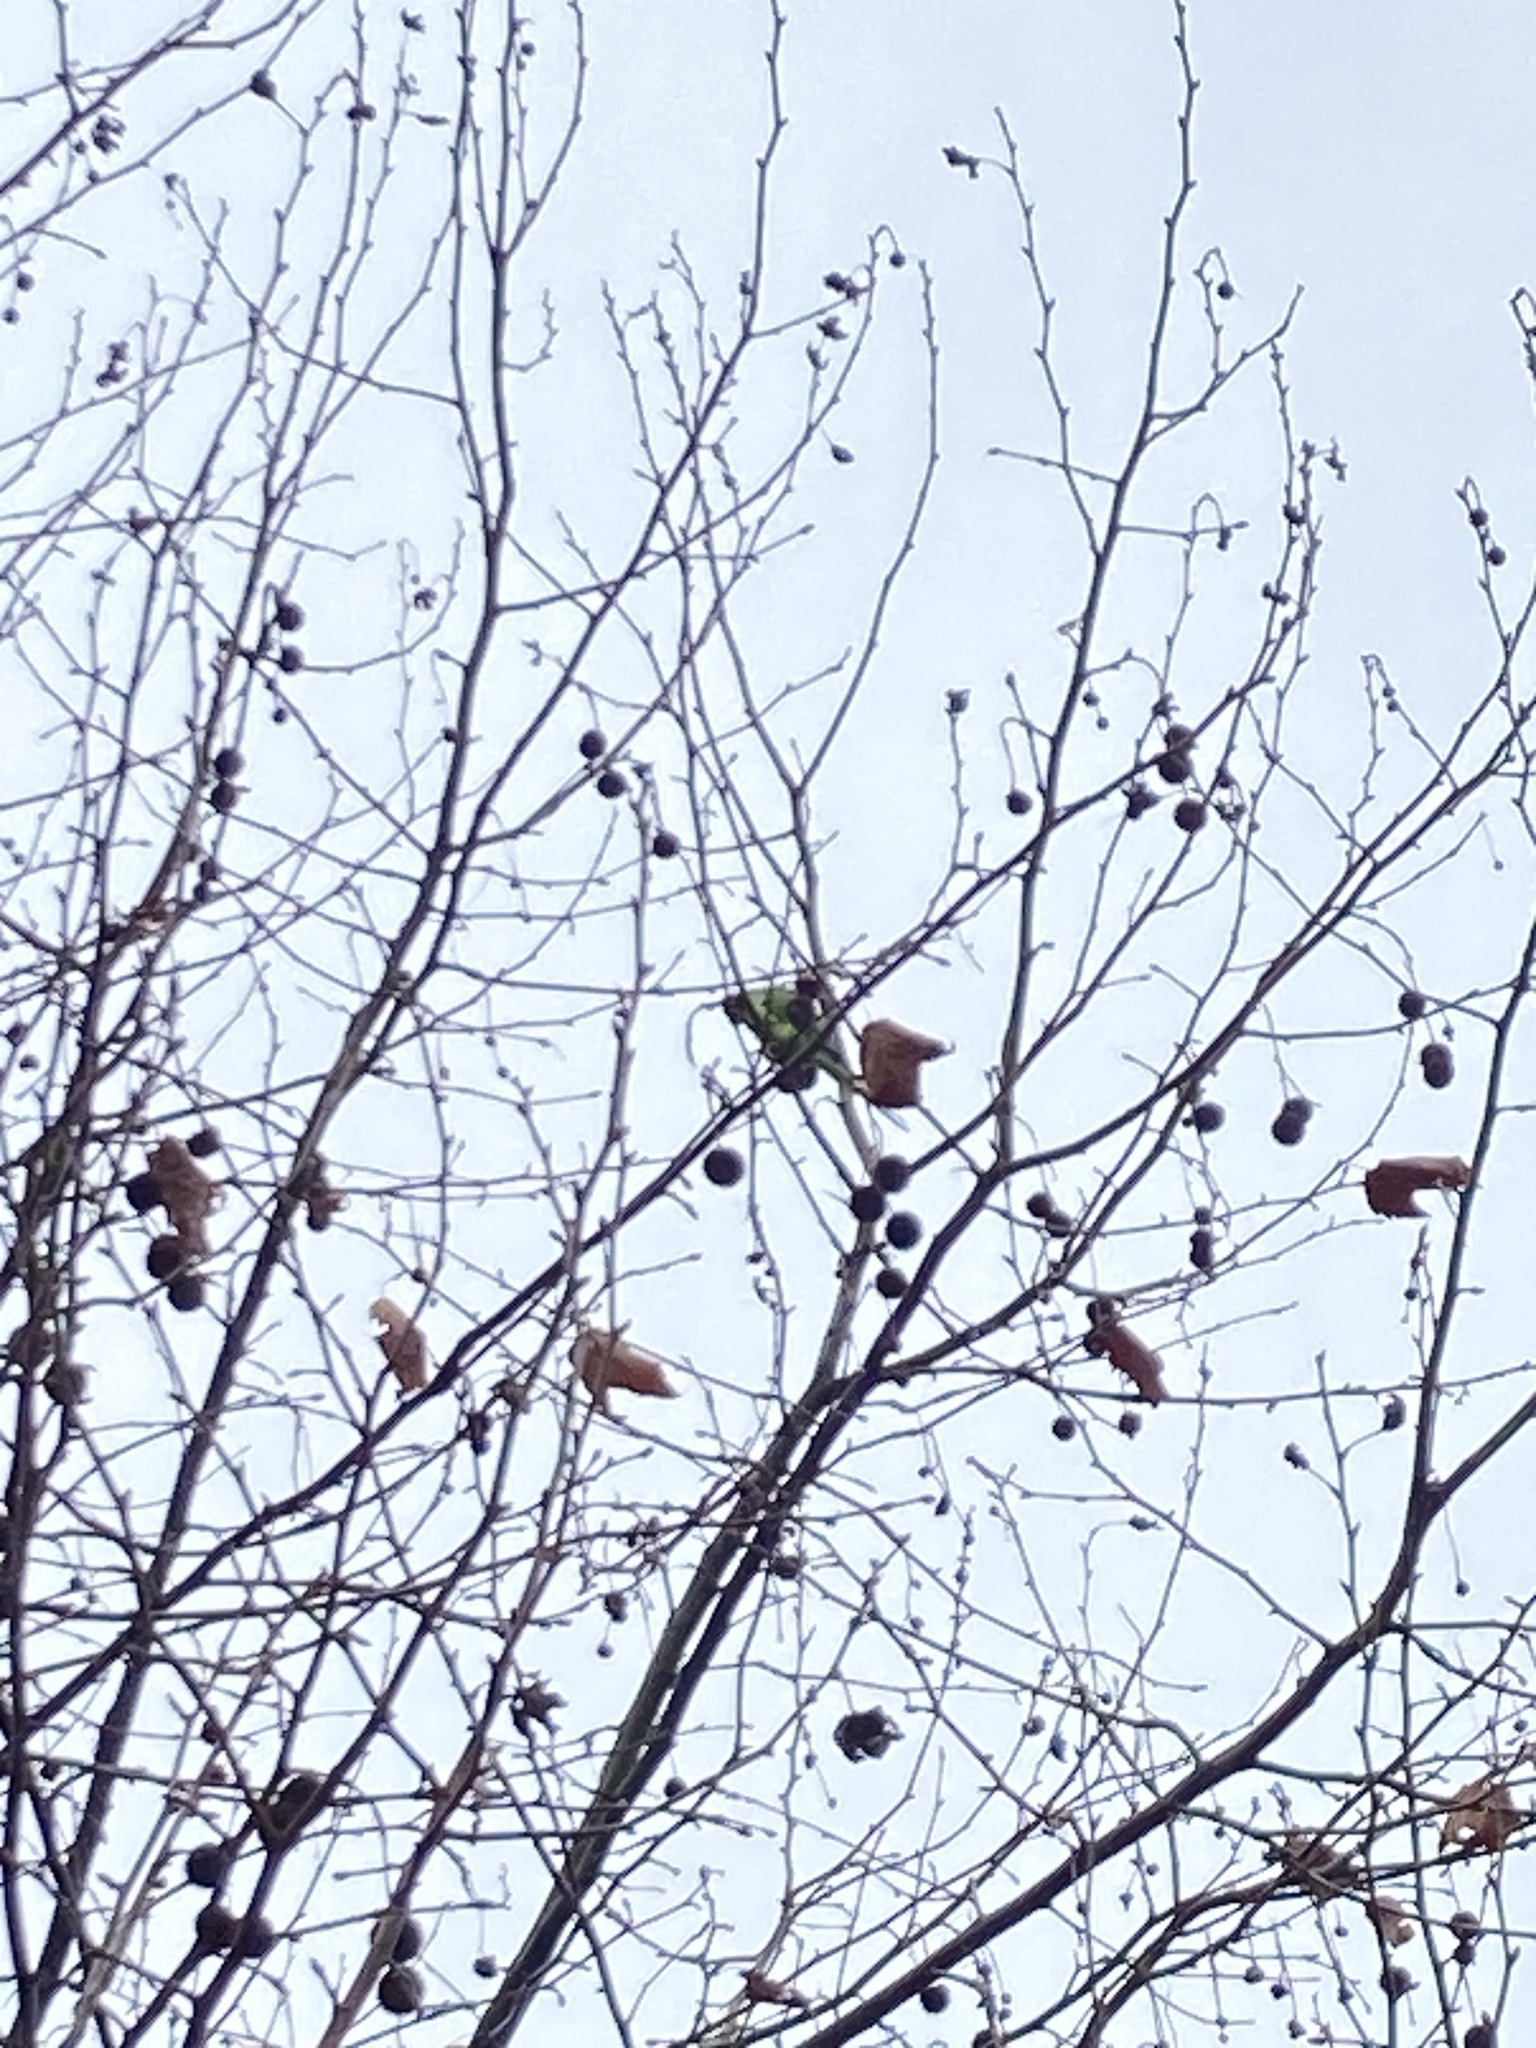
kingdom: Animalia
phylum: Chordata
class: Aves
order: Psittaciformes
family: Psittacidae
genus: Psittacula
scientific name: Psittacula krameri
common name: Rose-ringed parakeet
